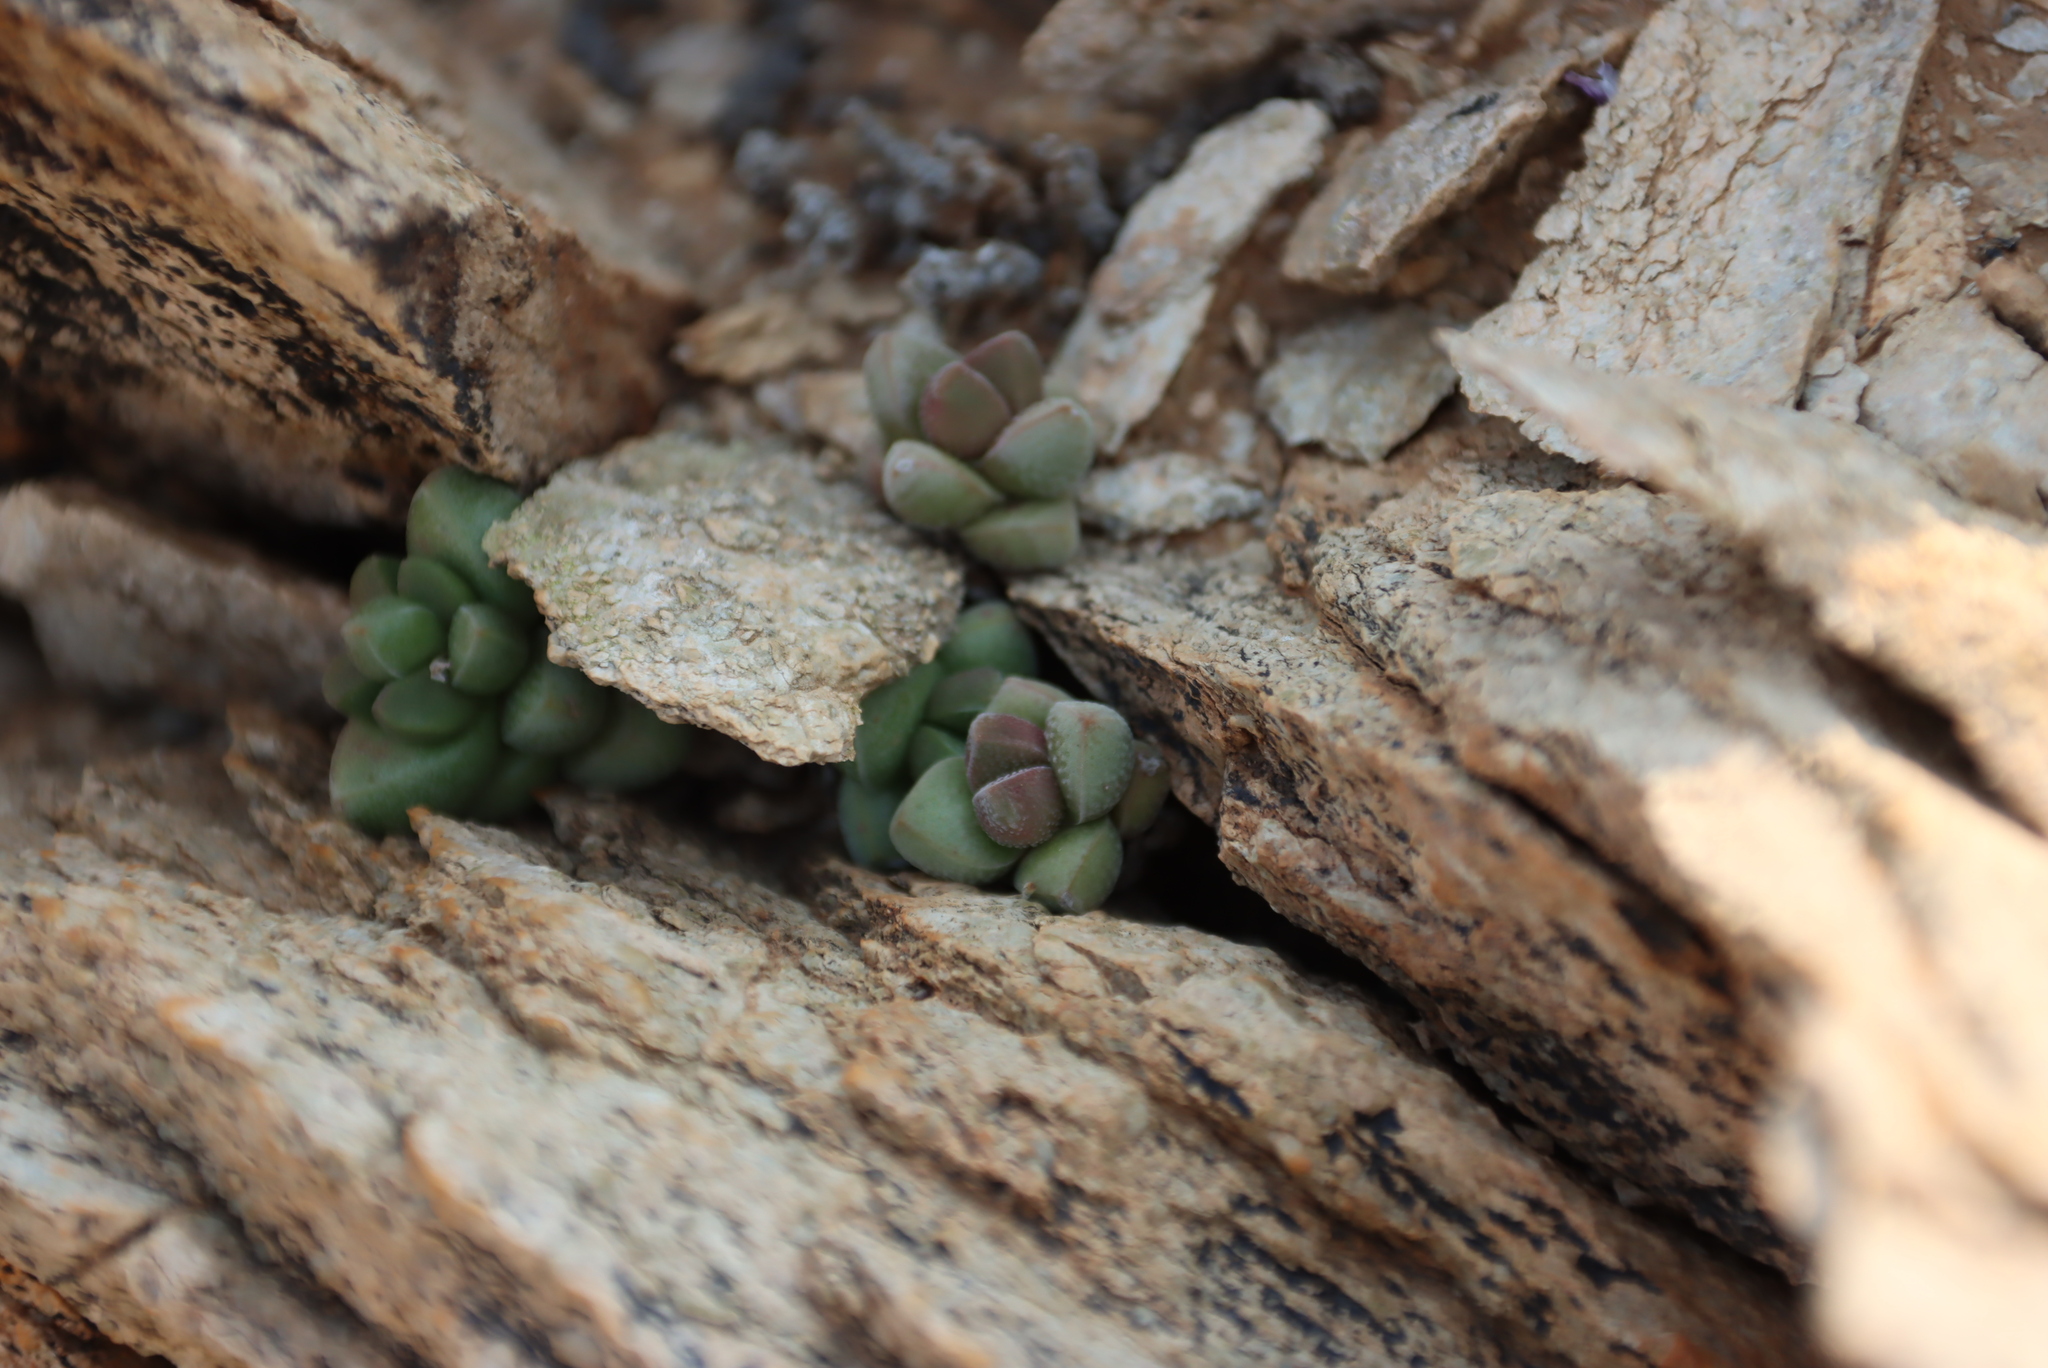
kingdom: Plantae
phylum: Tracheophyta
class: Magnoliopsida
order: Saxifragales
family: Crassulaceae
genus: Crassula
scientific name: Crassula elegans
